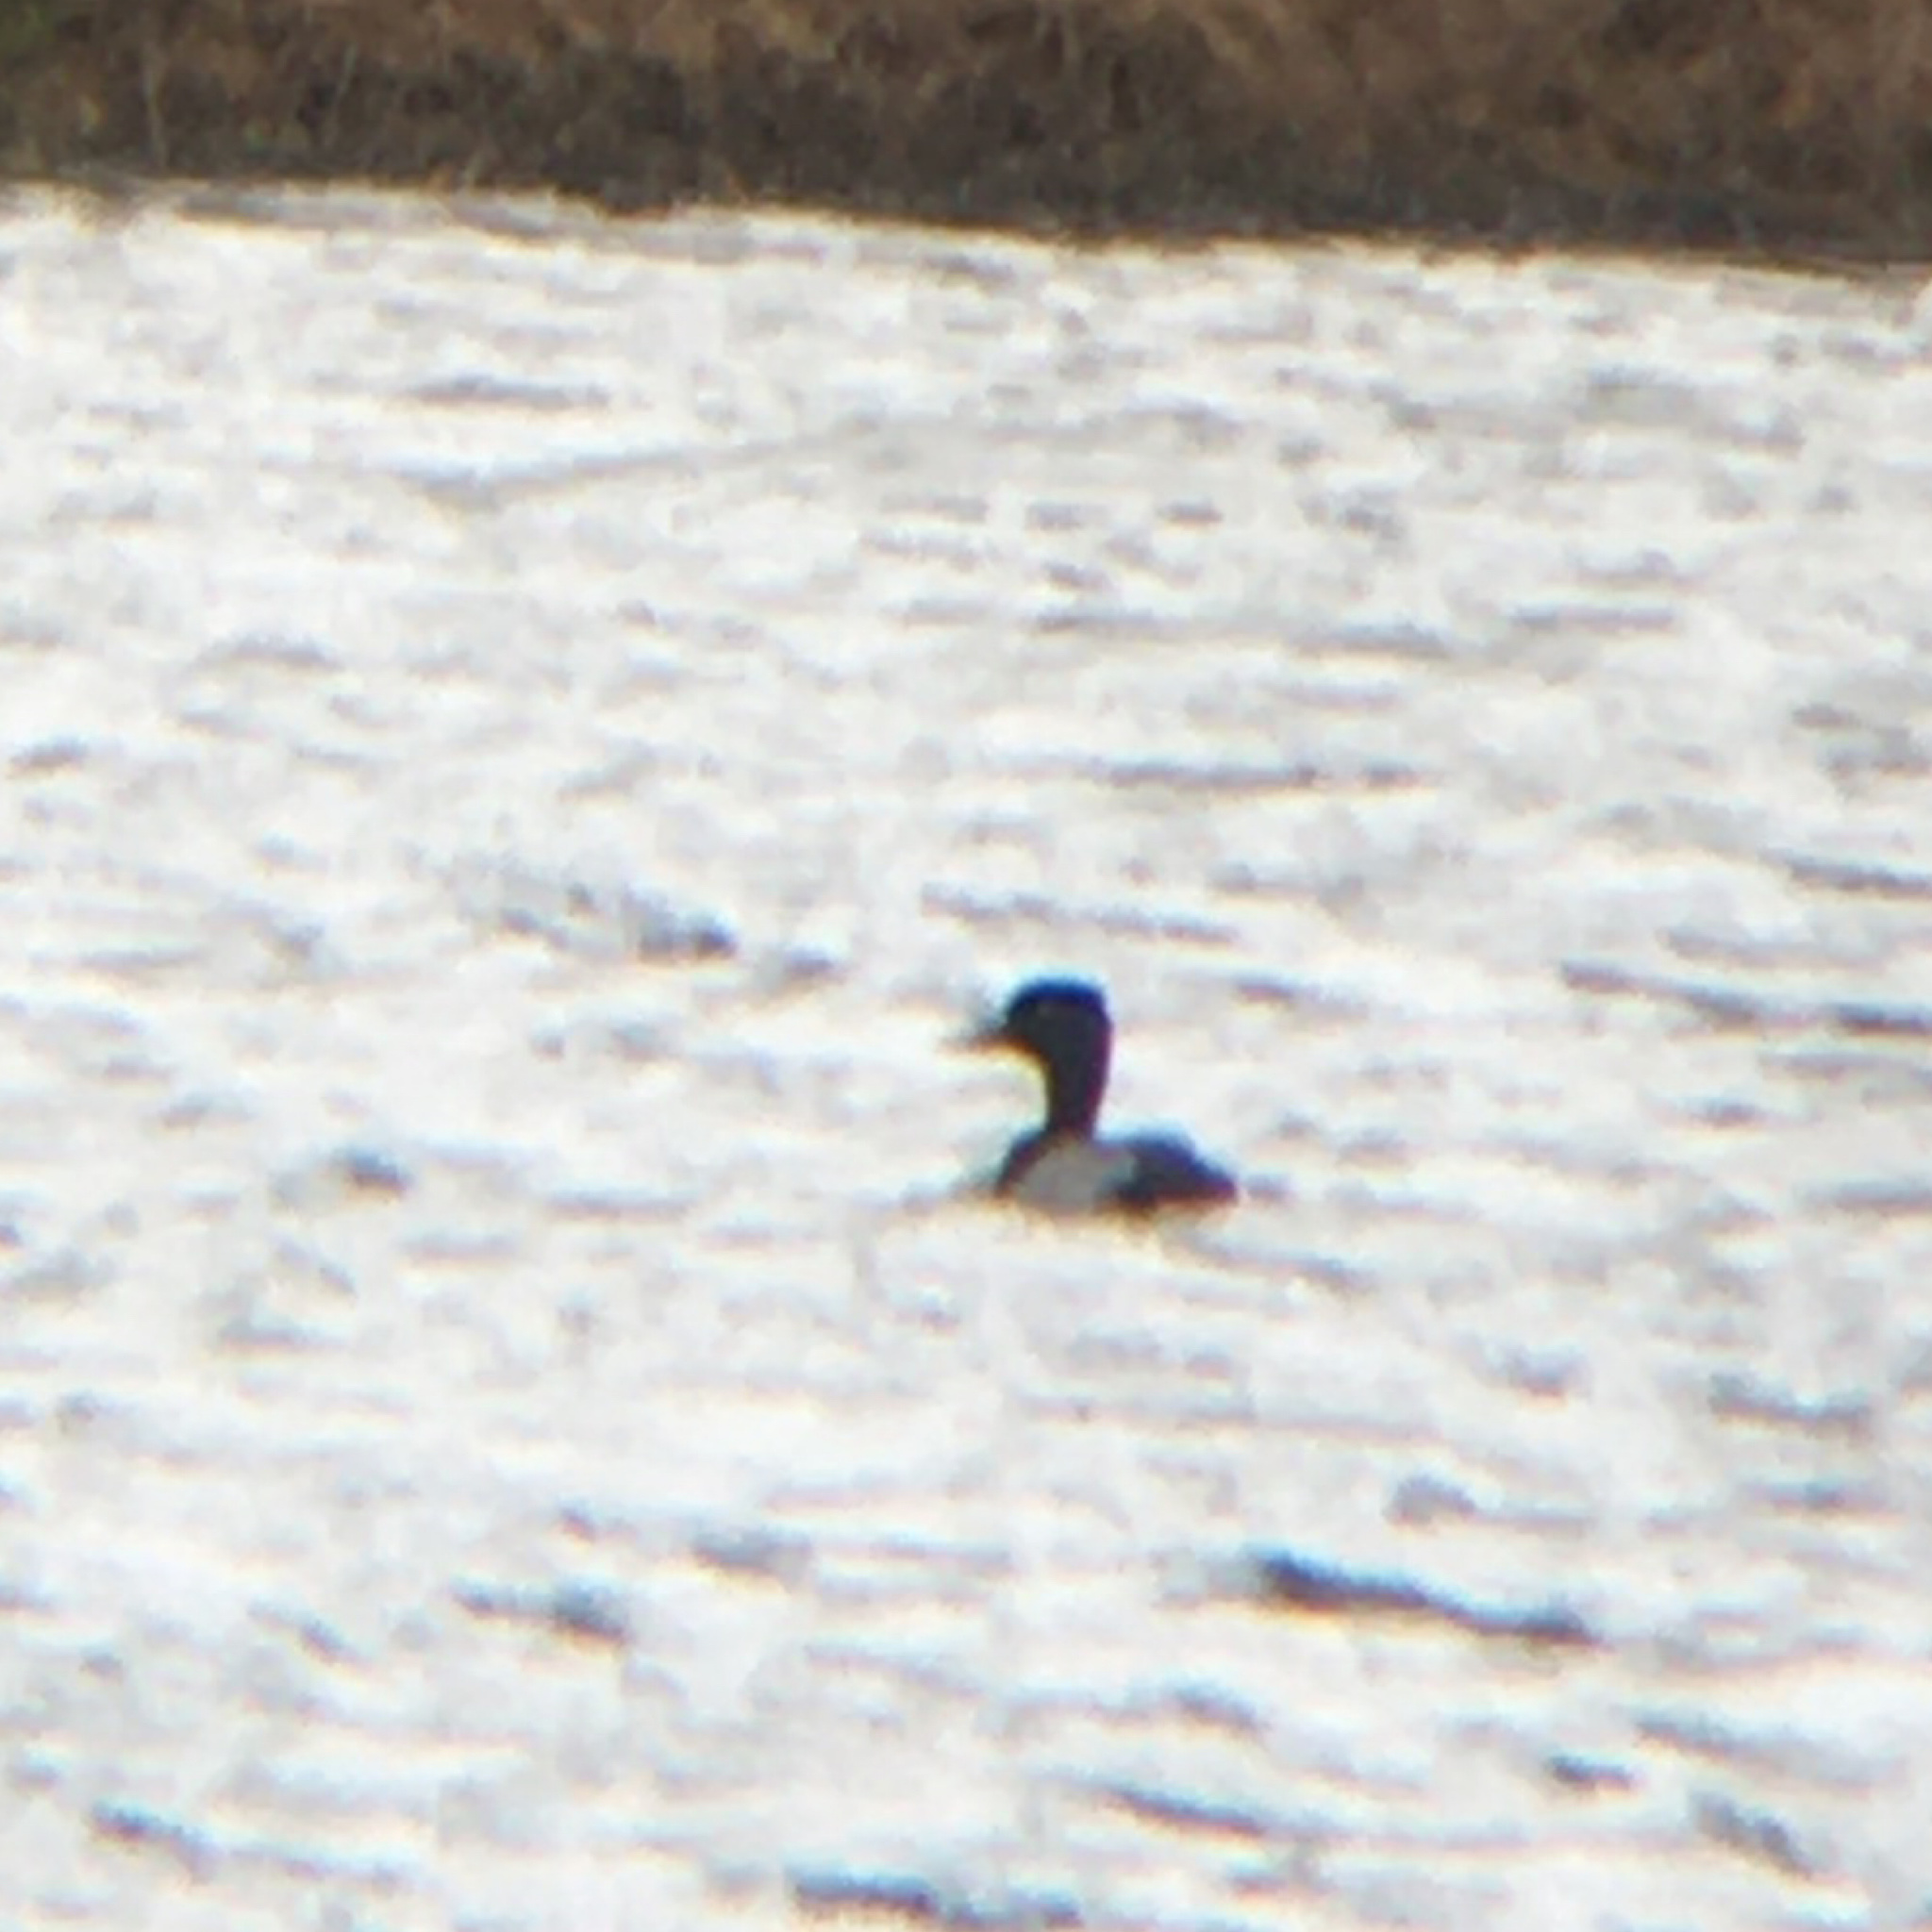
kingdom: Animalia
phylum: Chordata
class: Aves
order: Anseriformes
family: Anatidae
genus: Aythya
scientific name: Aythya affinis
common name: Lesser scaup
